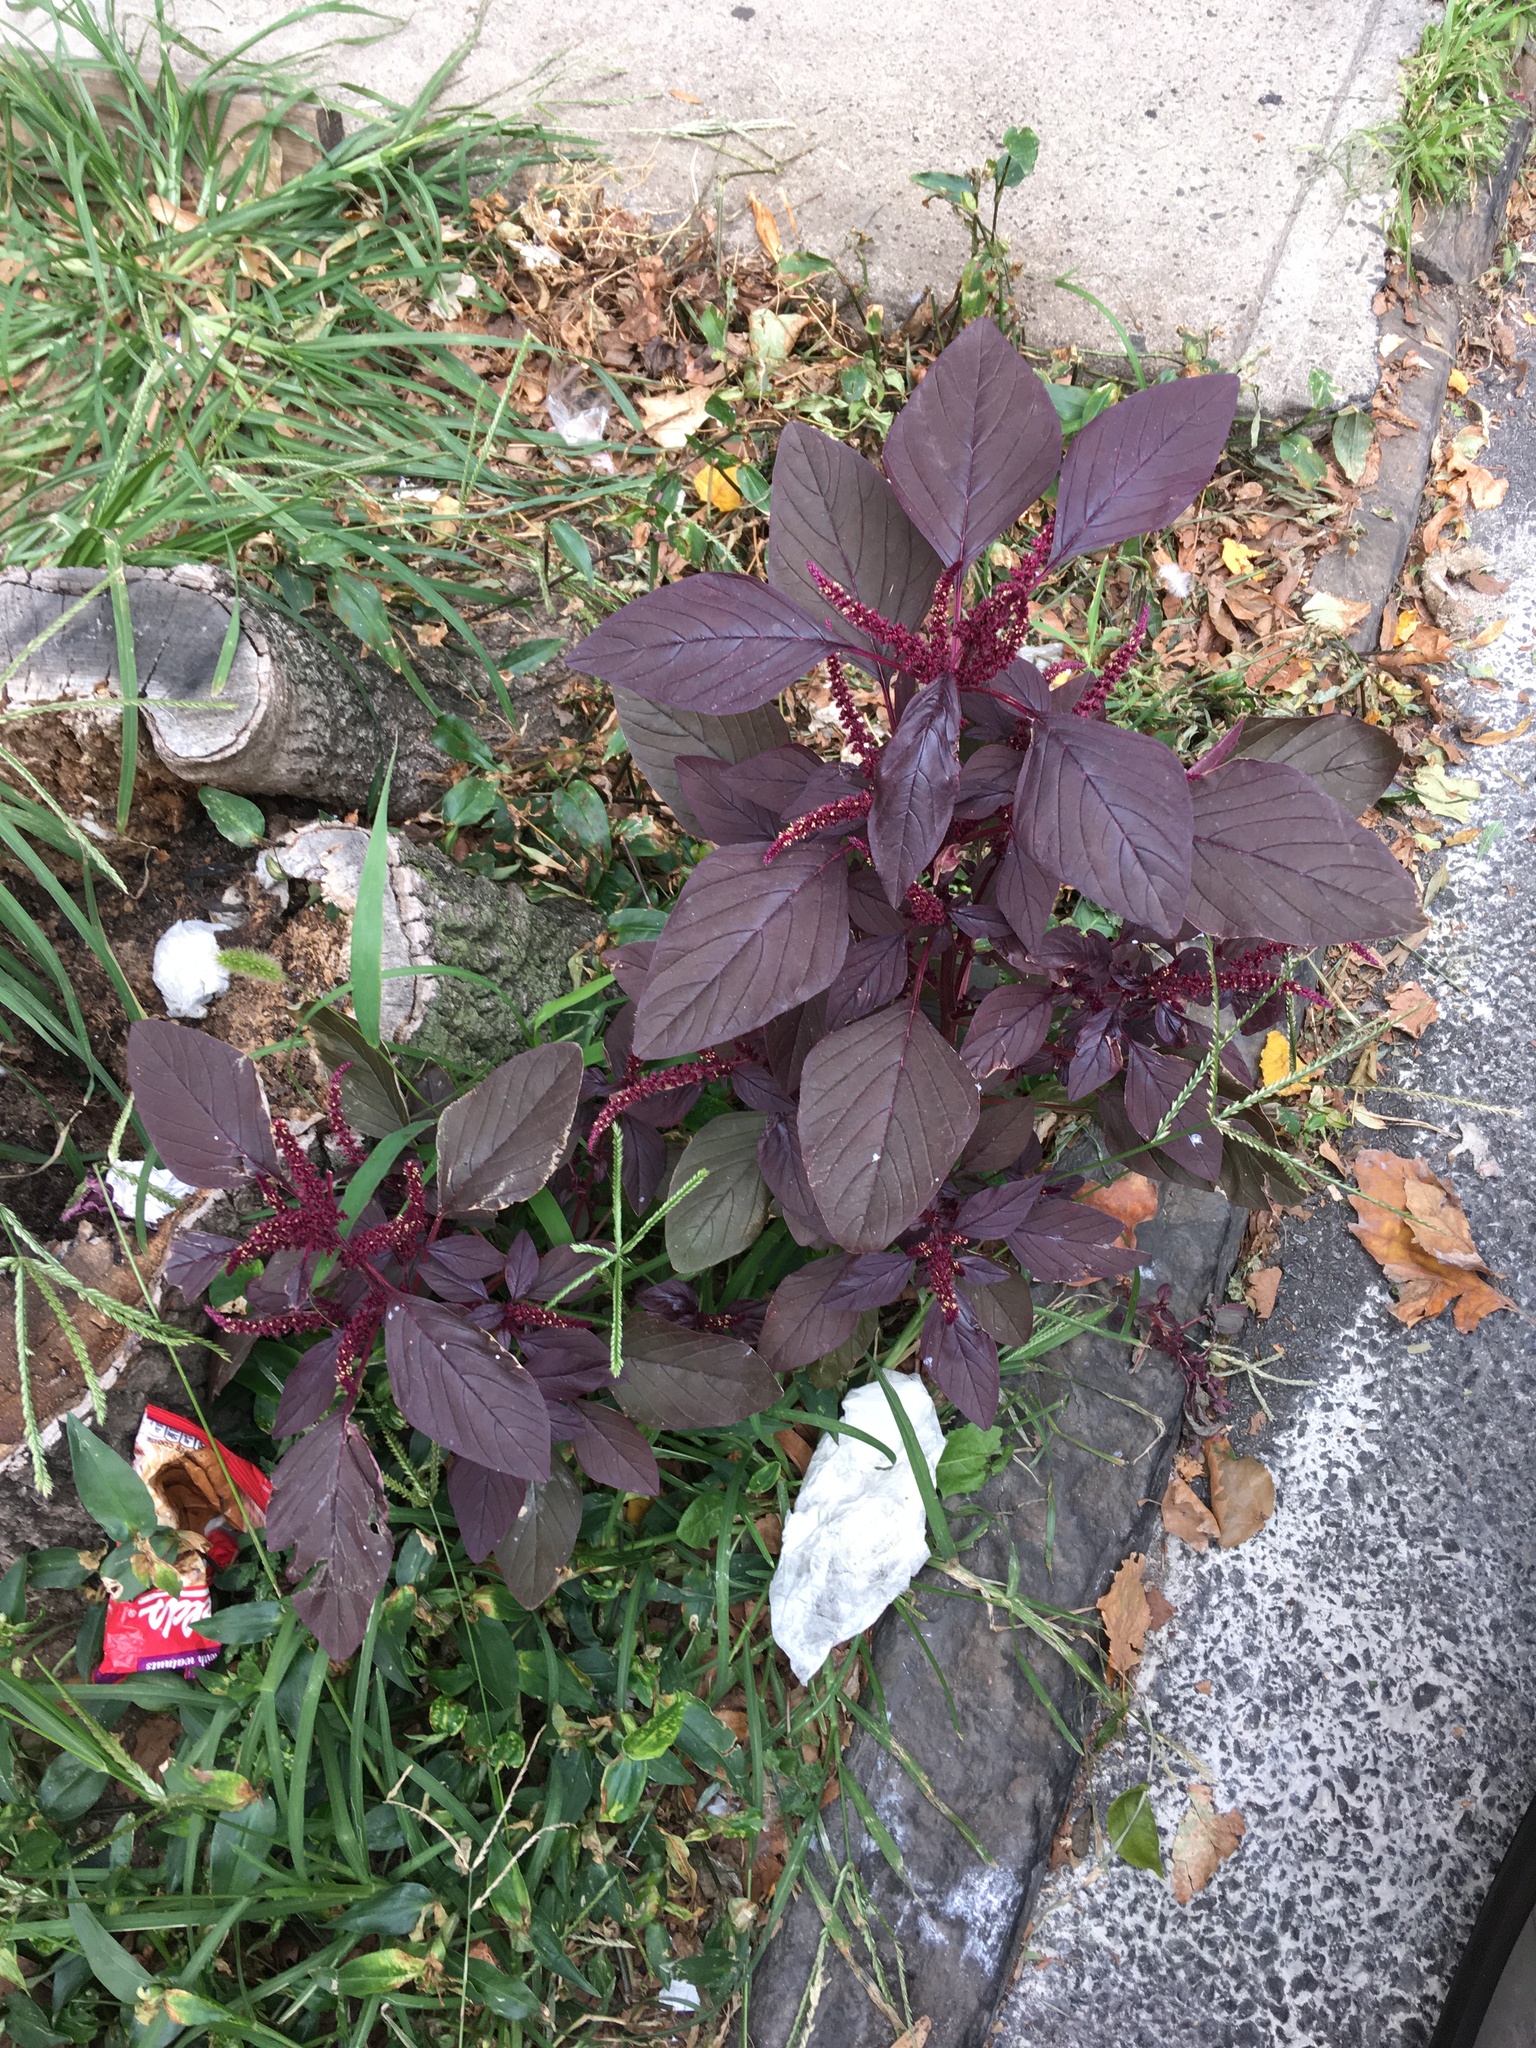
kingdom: Plantae
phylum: Tracheophyta
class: Magnoliopsida
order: Caryophyllales
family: Amaranthaceae
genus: Amaranthus
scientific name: Amaranthus cruentus
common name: Purple amaranth
